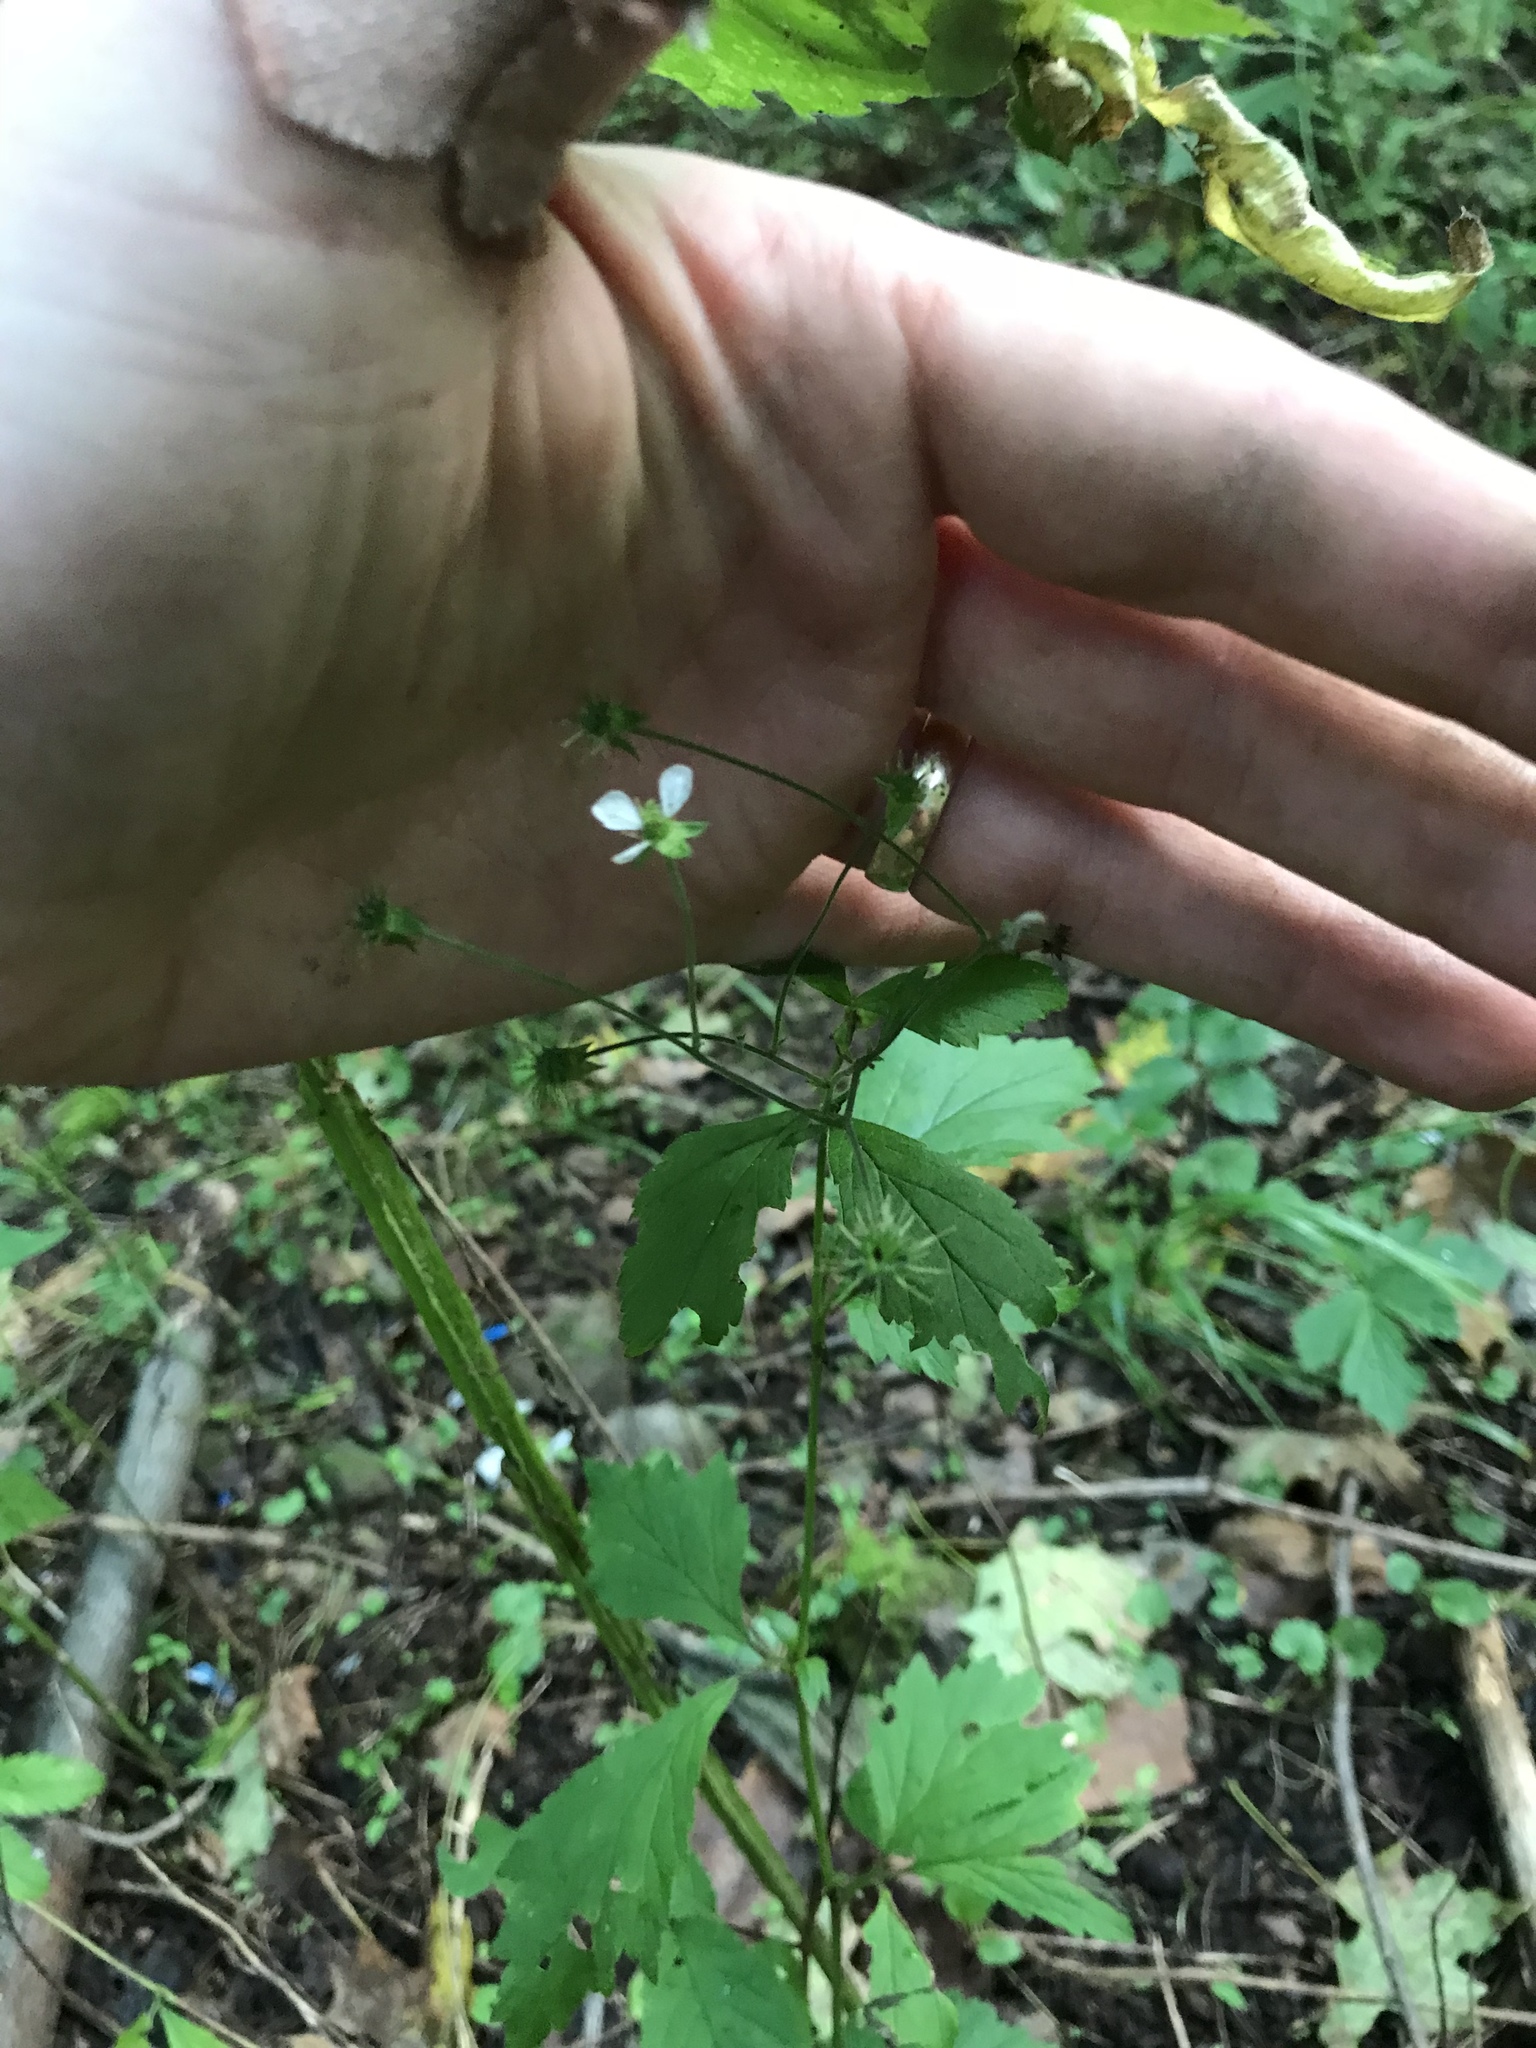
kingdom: Plantae
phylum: Tracheophyta
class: Magnoliopsida
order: Rosales
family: Rosaceae
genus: Geum
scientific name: Geum canadense
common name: White avens
